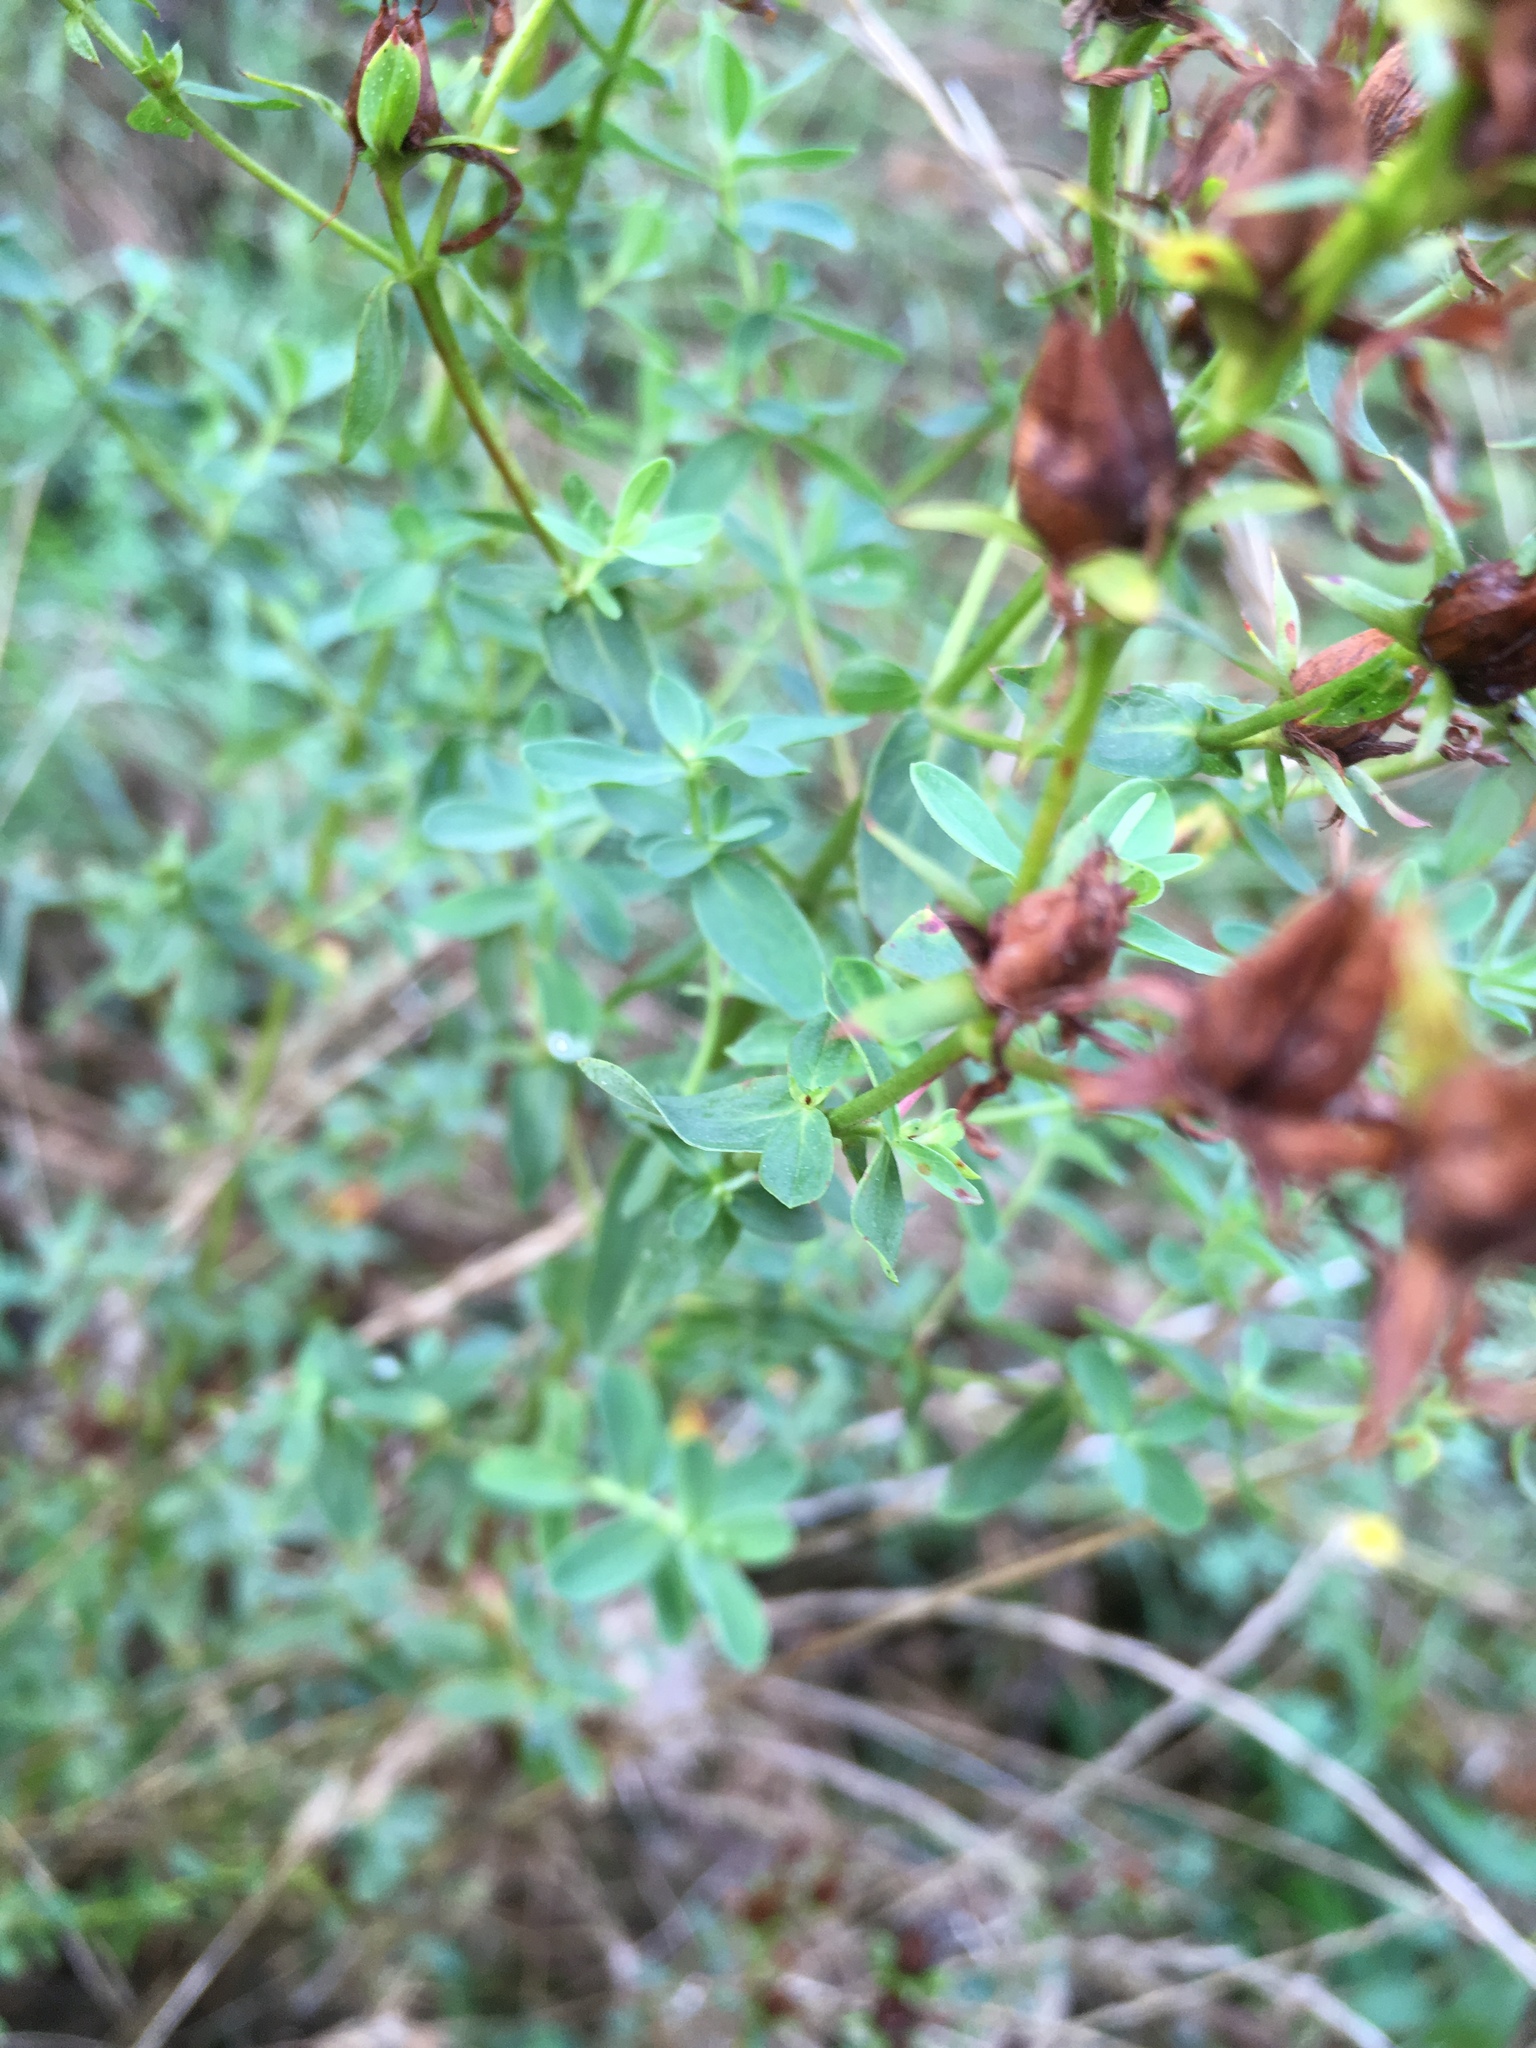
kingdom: Plantae
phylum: Tracheophyta
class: Magnoliopsida
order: Malpighiales
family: Hypericaceae
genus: Hypericum
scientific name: Hypericum perforatum
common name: Common st. johnswort
